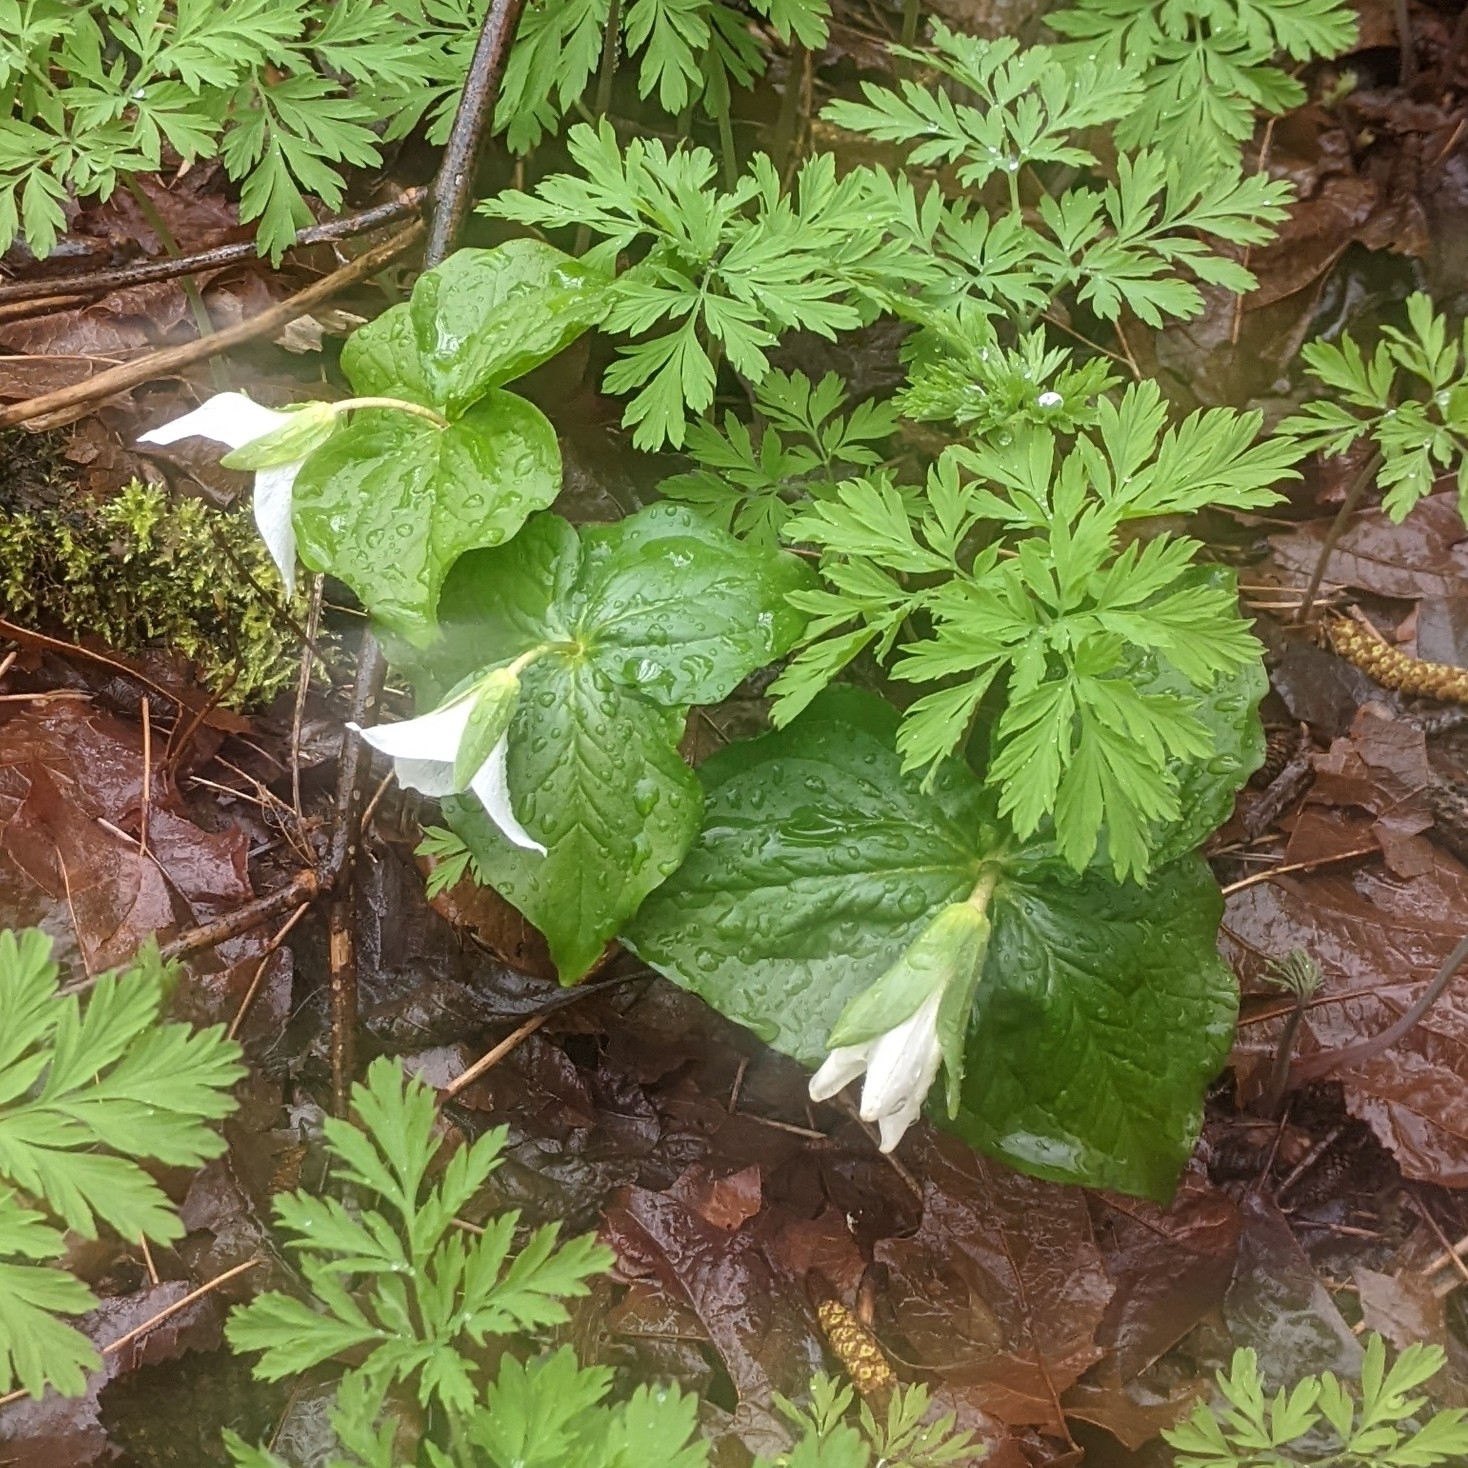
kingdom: Plantae
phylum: Tracheophyta
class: Liliopsida
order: Liliales
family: Melanthiaceae
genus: Trillium
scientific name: Trillium ovatum
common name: Pacific trillium
